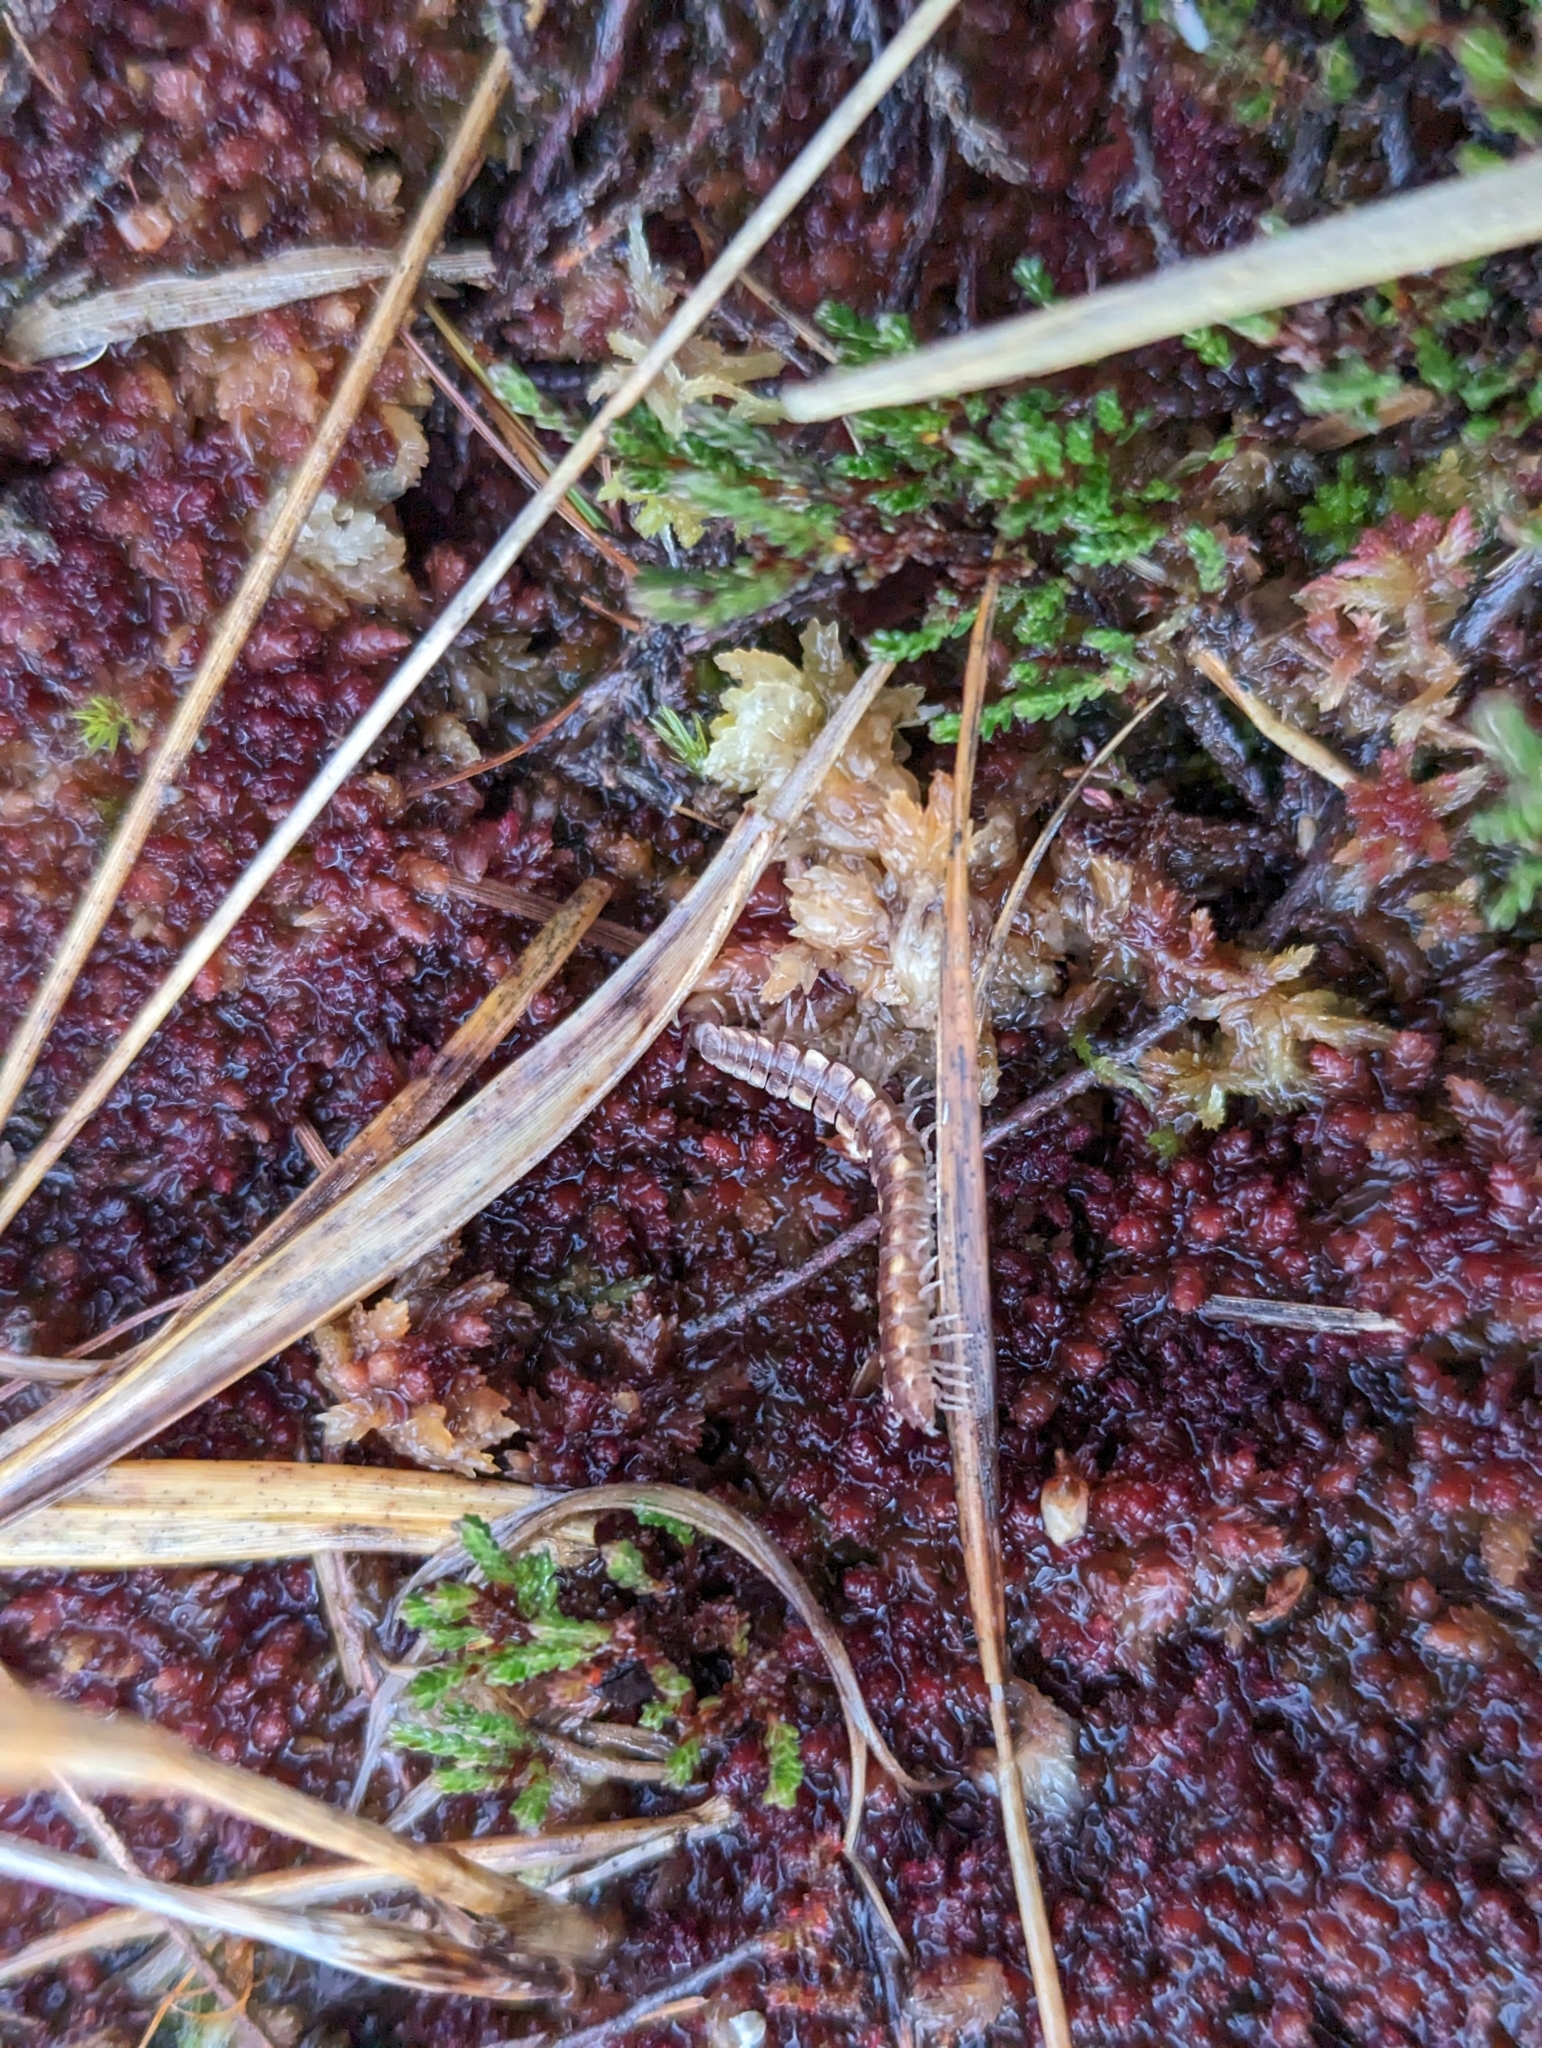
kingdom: Animalia
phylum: Arthropoda
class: Diplopoda
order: Polydesmida
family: Polydesmidae
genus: Polydesmus
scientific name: Polydesmus complanatus
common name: Flat-backed millipede
